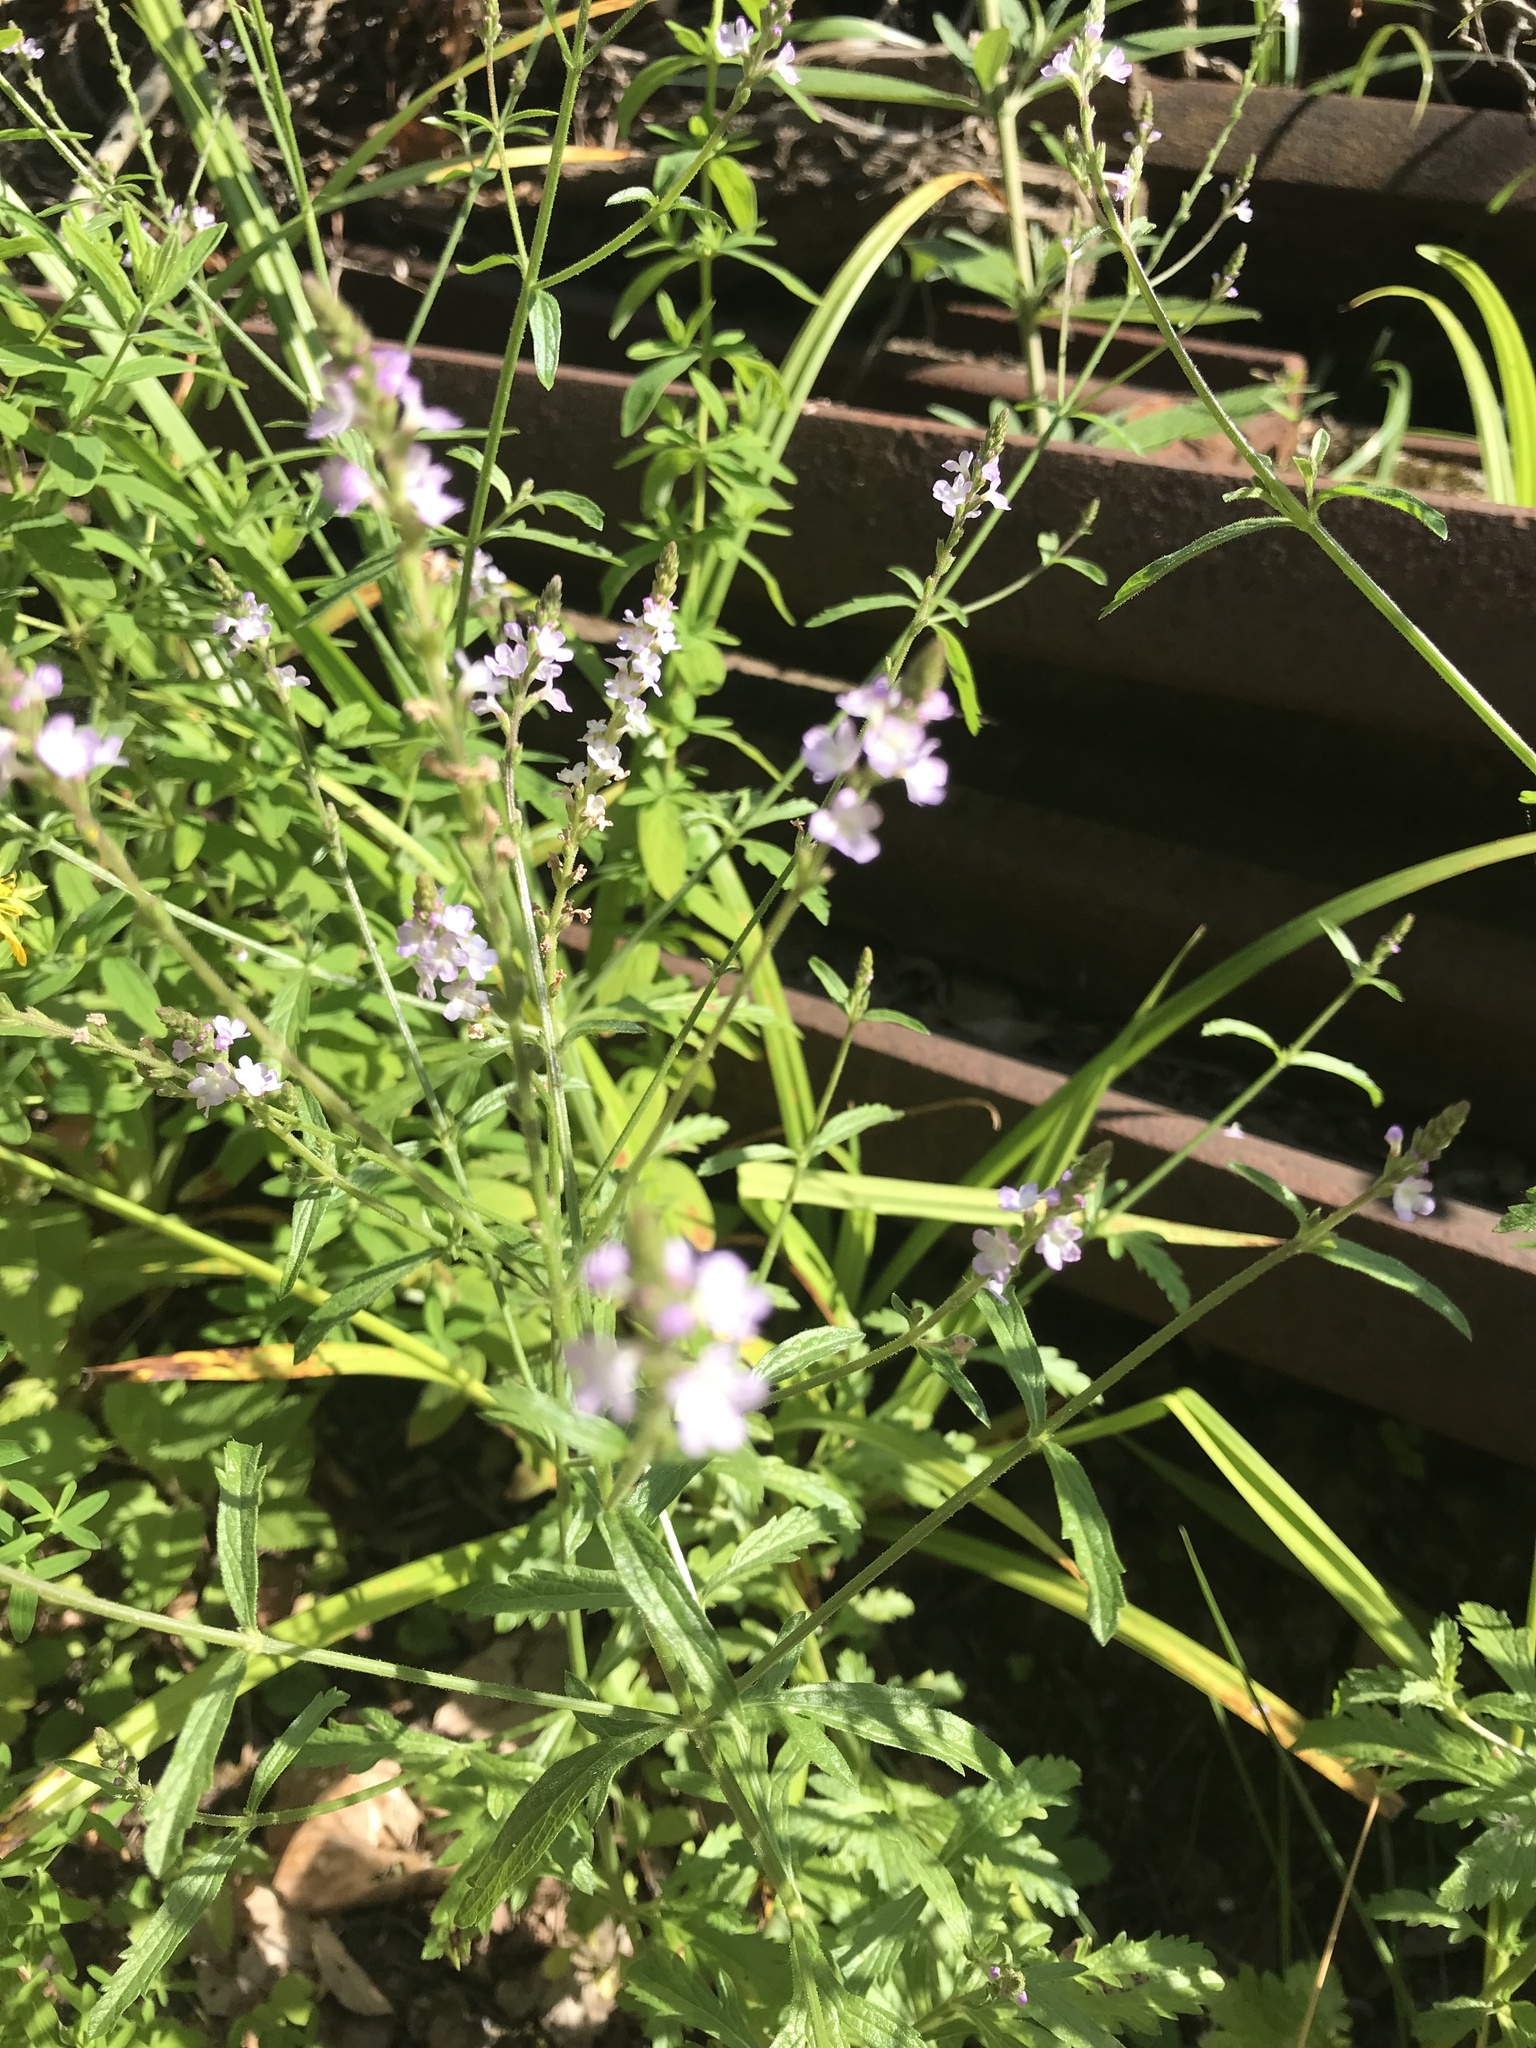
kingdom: Plantae
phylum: Tracheophyta
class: Magnoliopsida
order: Lamiales
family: Verbenaceae
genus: Verbena
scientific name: Verbena officinalis
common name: Vervain
